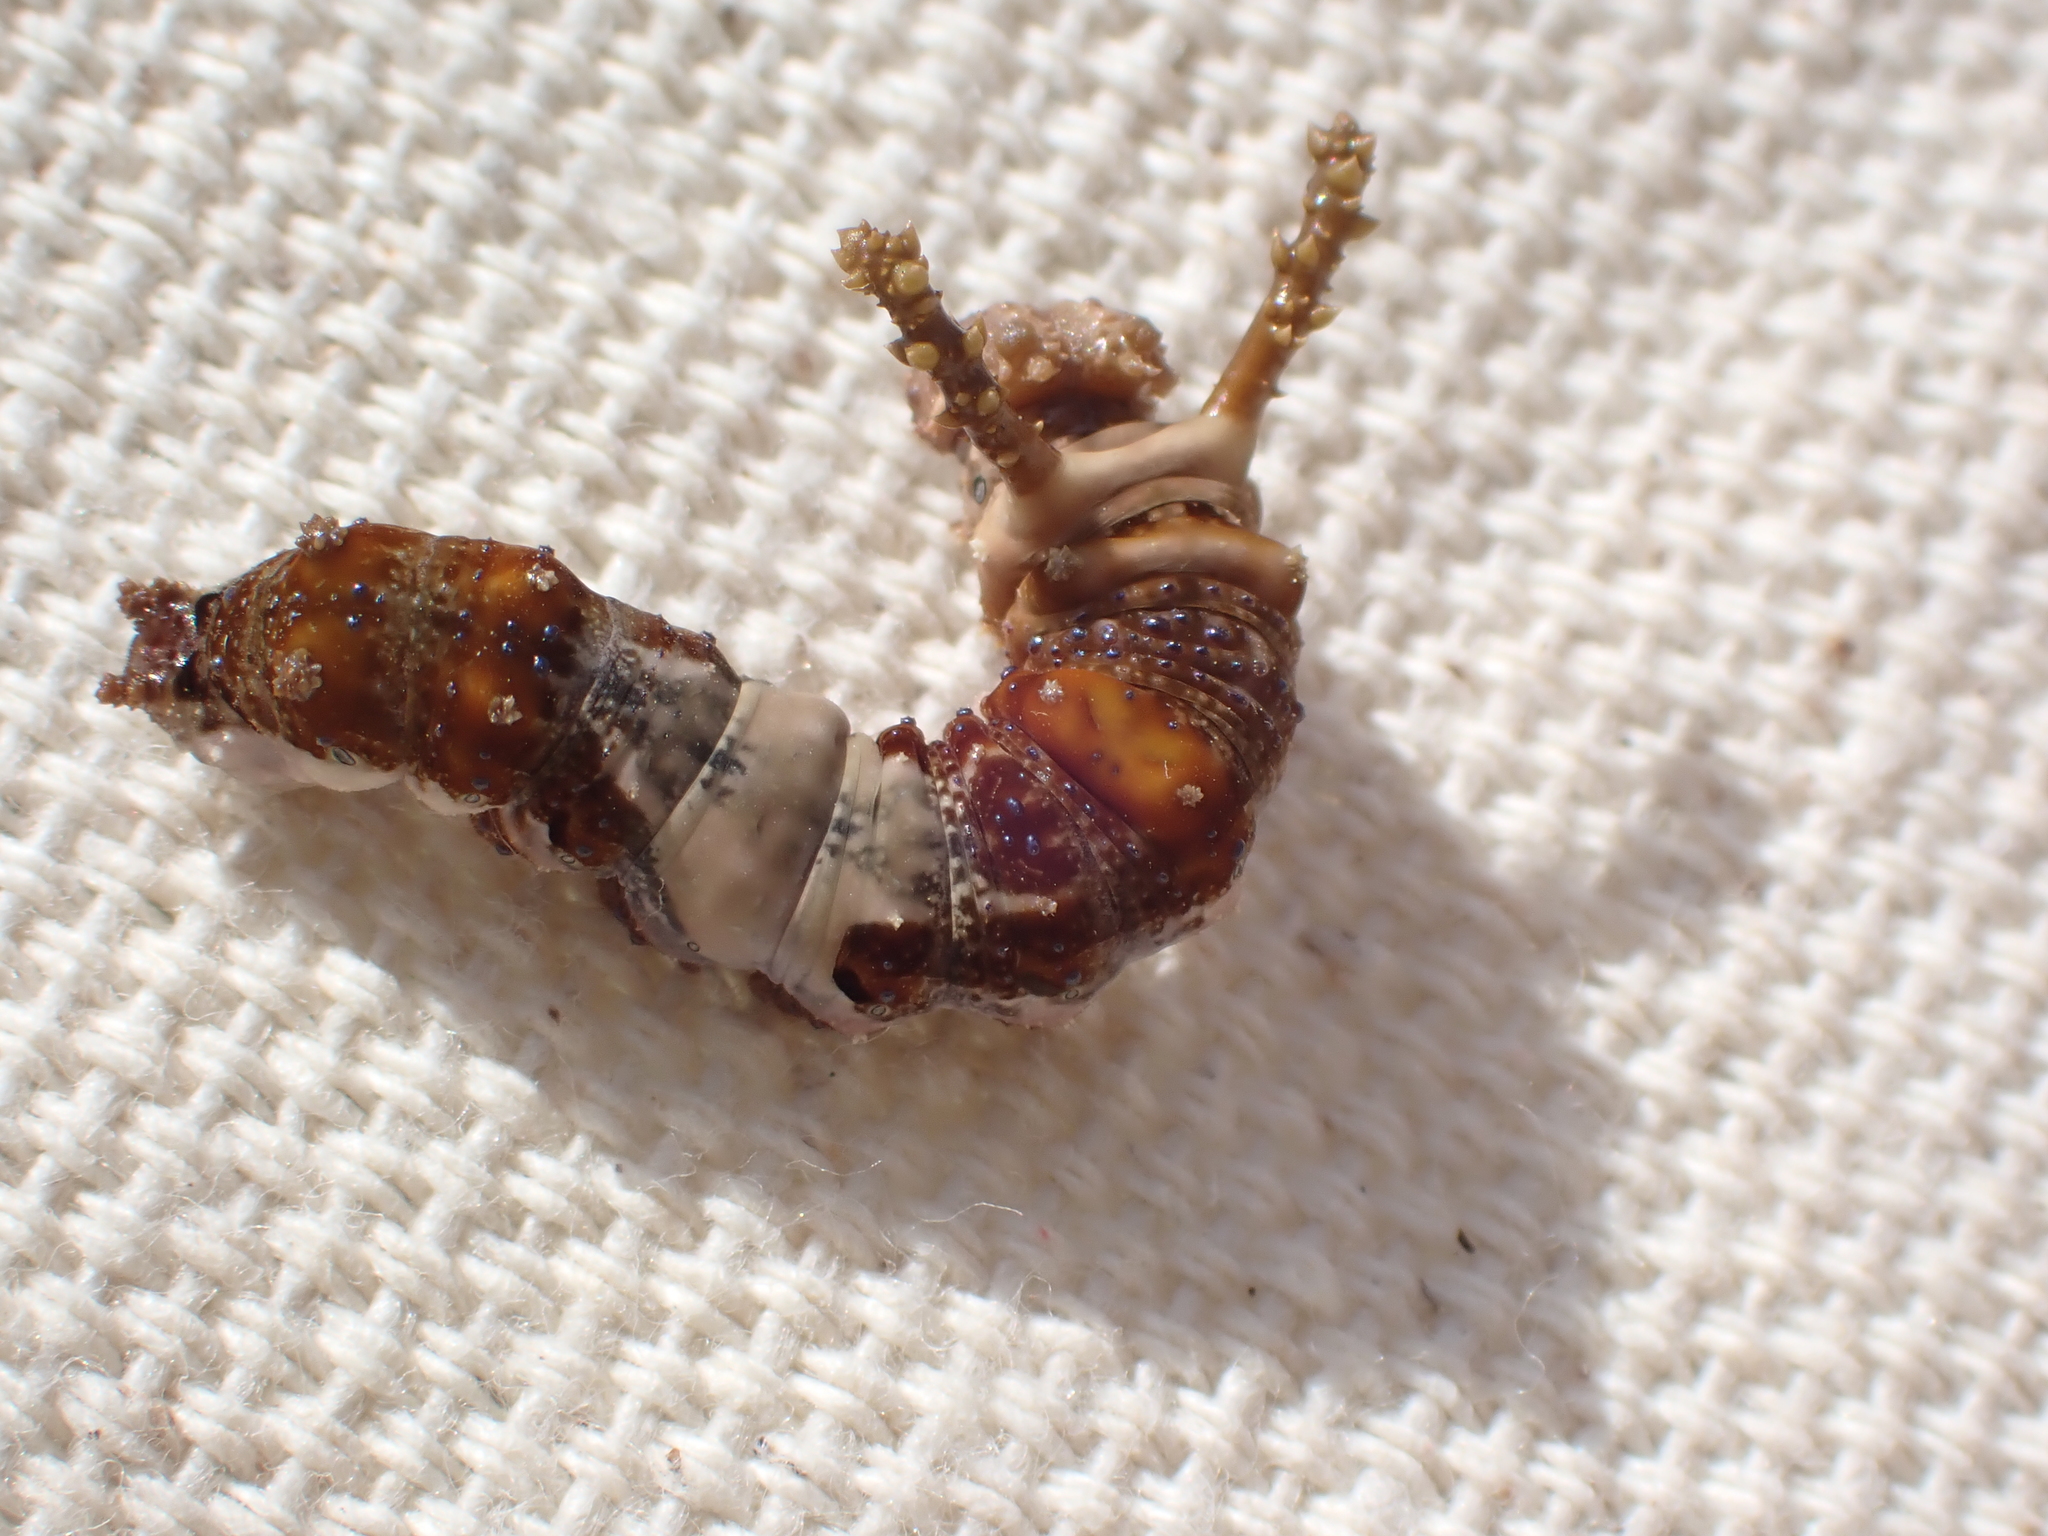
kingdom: Animalia
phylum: Arthropoda
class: Insecta
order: Lepidoptera
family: Nymphalidae
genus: Limenitis
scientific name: Limenitis archippus
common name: Viceroy
